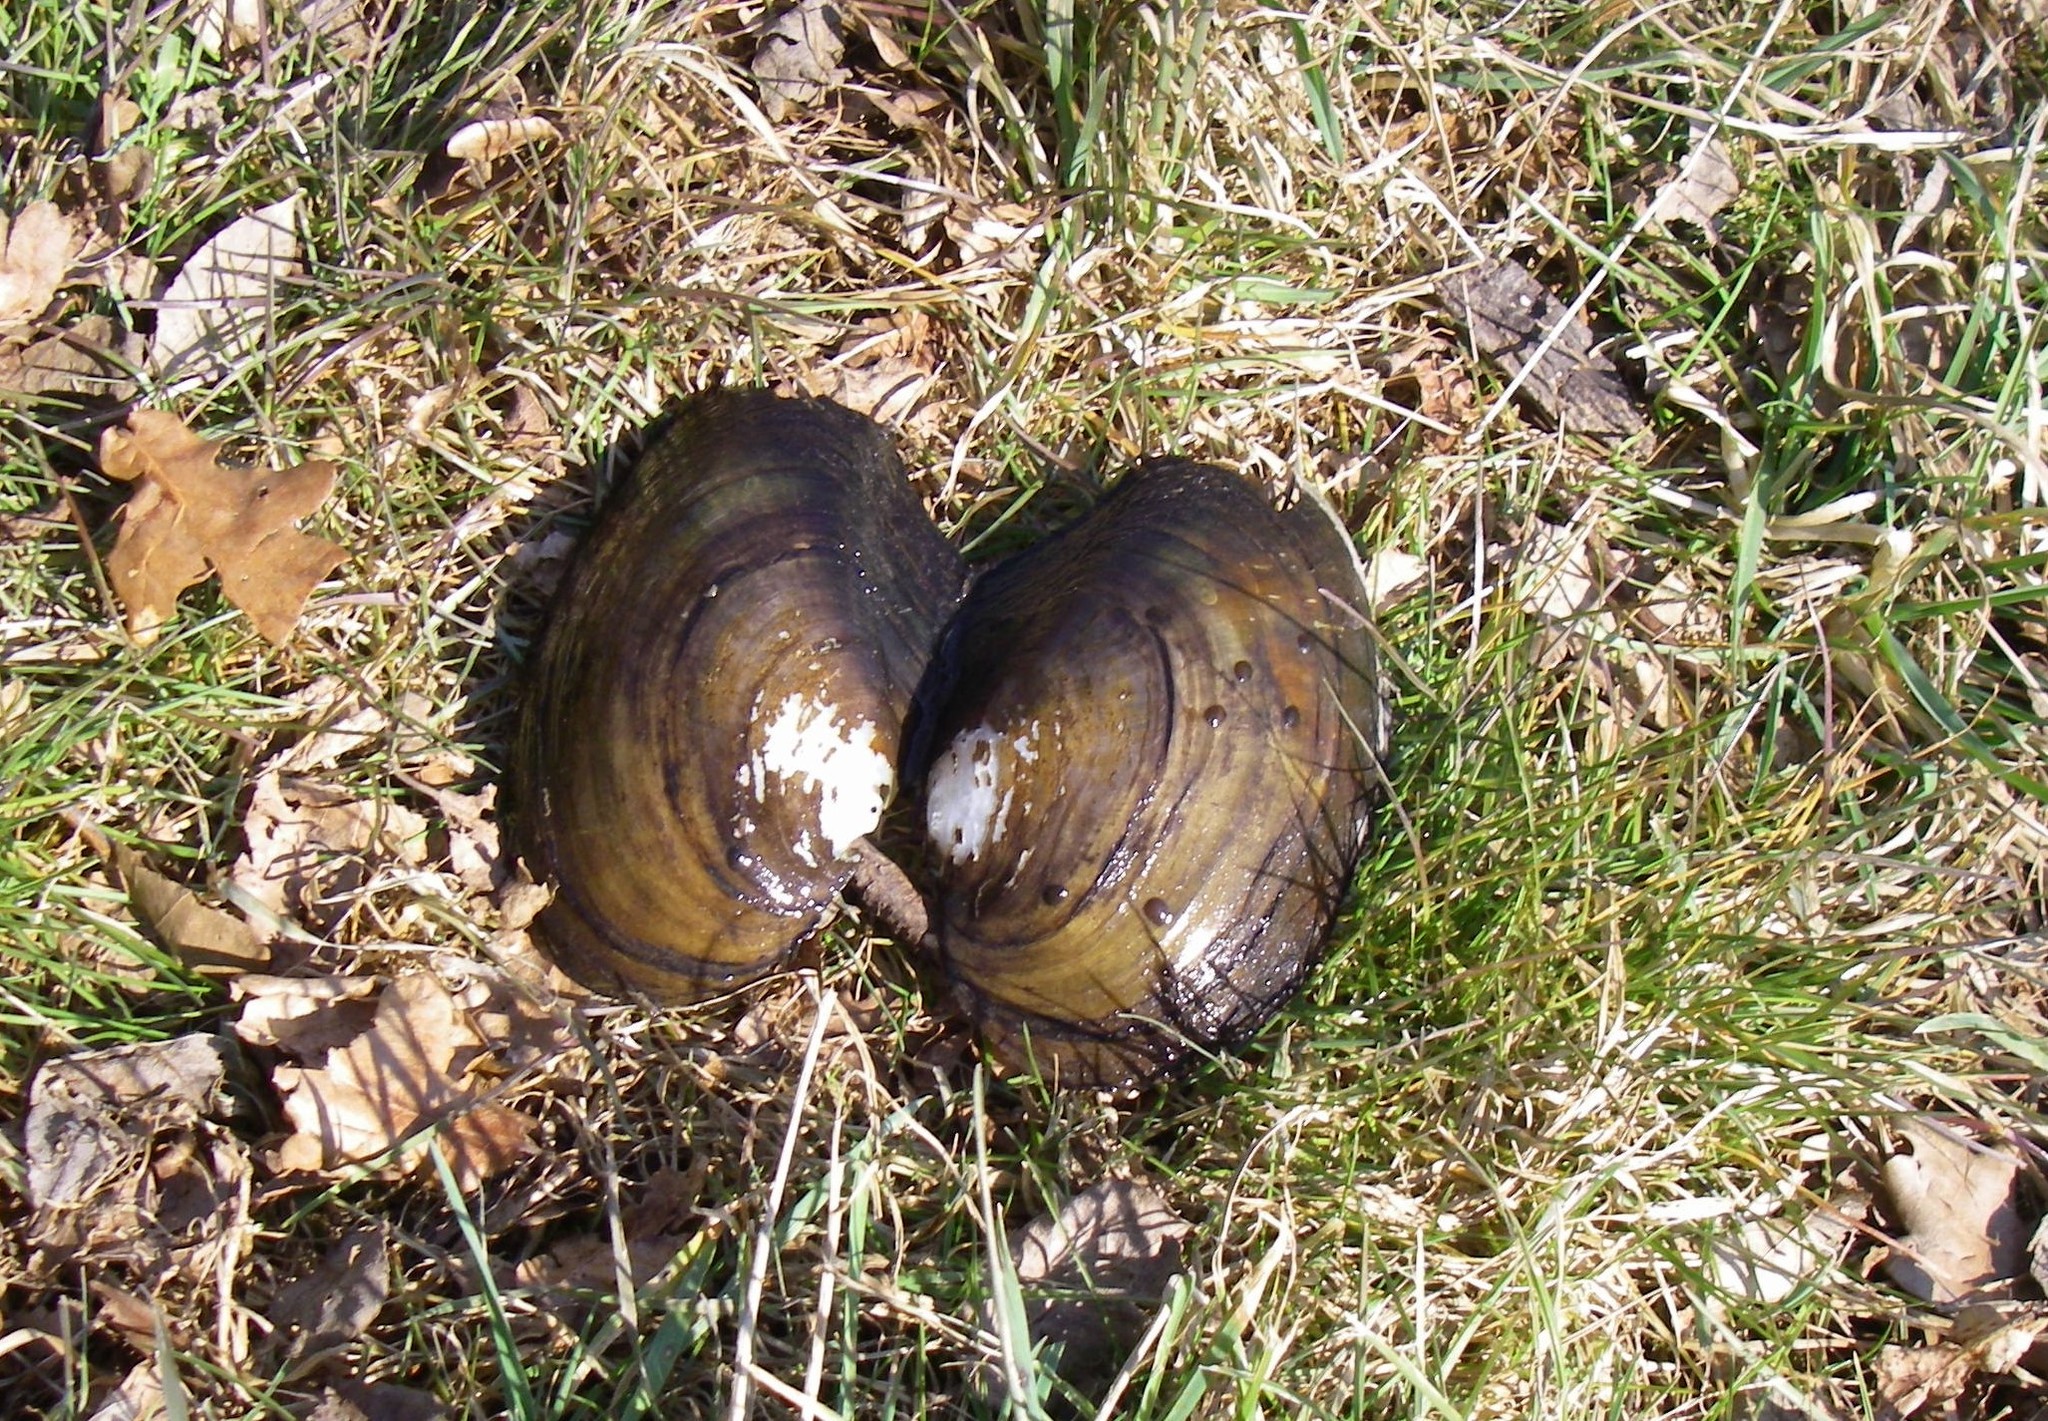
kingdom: Animalia
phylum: Mollusca
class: Bivalvia
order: Unionida
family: Unionidae
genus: Anodonta
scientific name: Anodonta anatina
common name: Duck mussel
